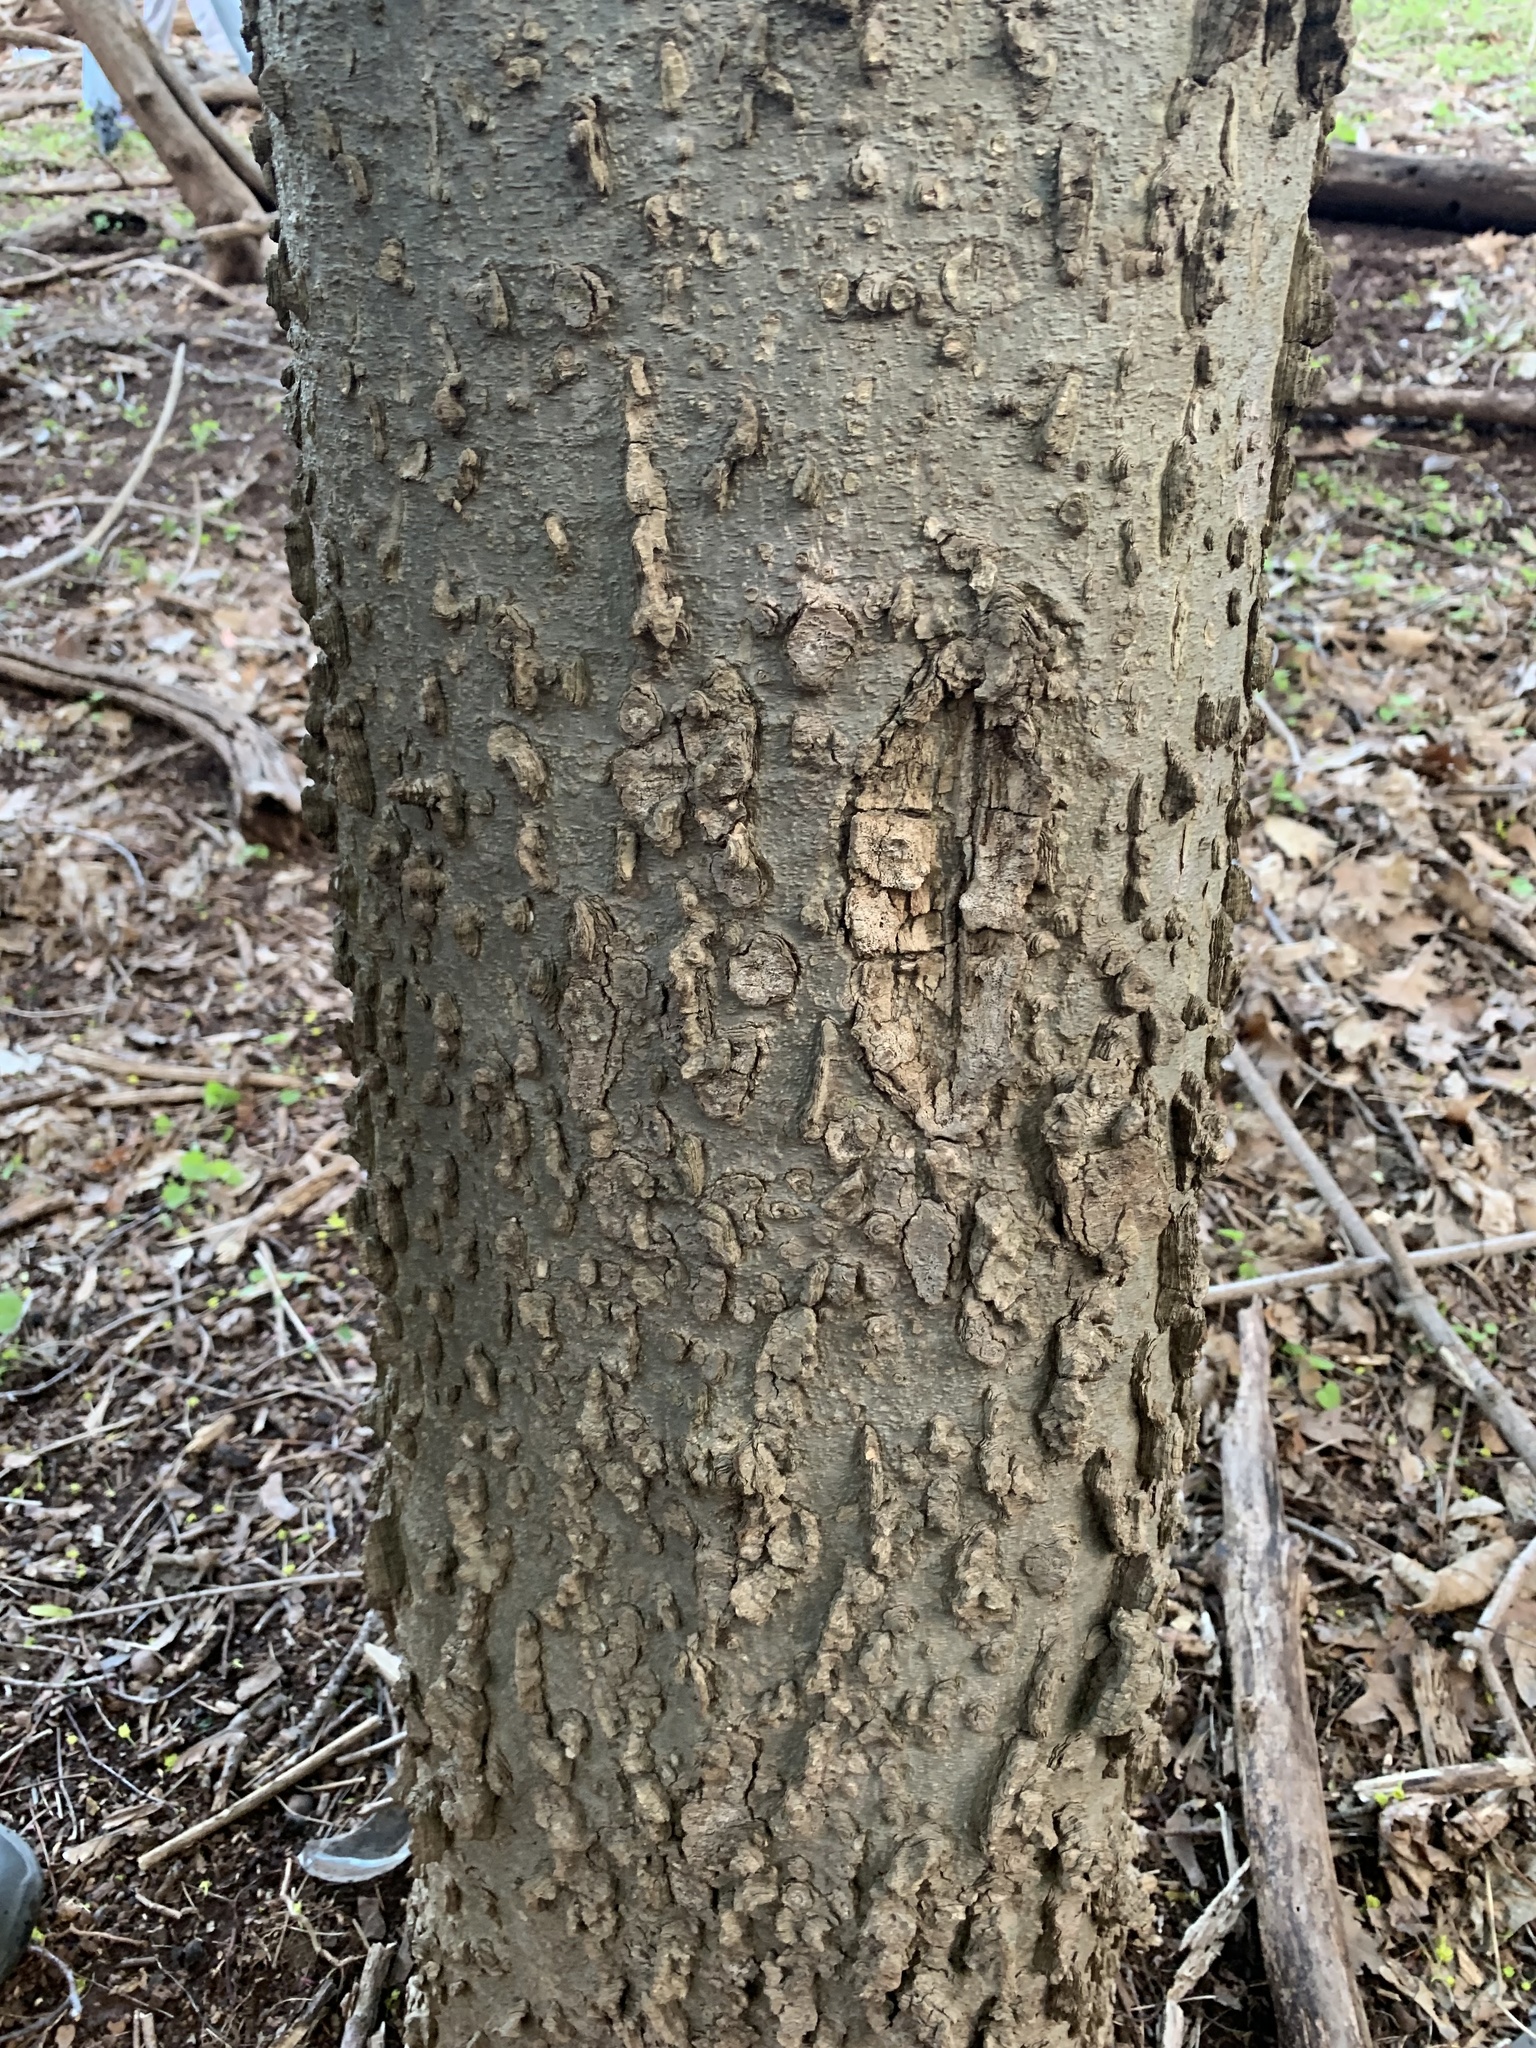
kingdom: Plantae
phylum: Tracheophyta
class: Magnoliopsida
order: Rosales
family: Cannabaceae
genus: Celtis
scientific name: Celtis occidentalis
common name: Common hackberry
